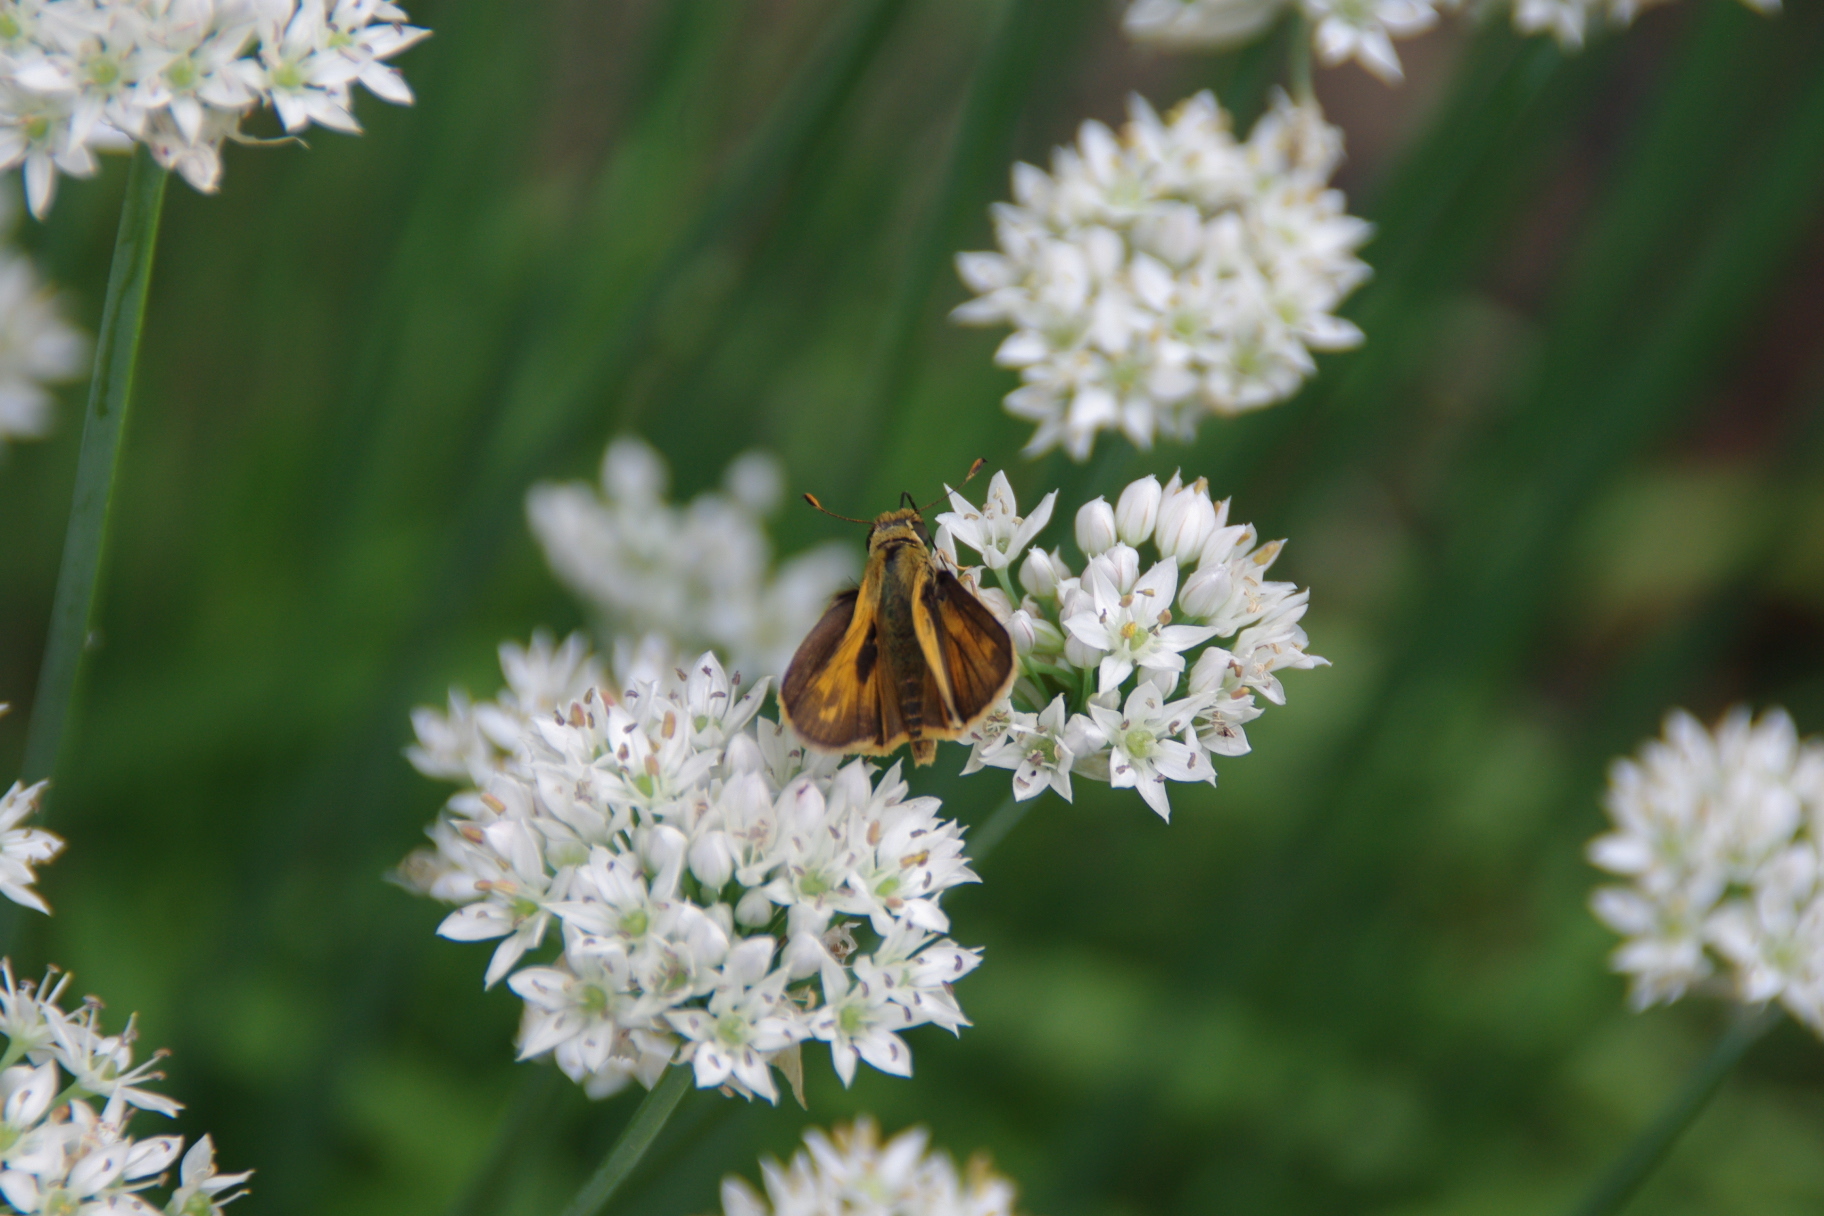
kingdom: Animalia
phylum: Arthropoda
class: Insecta
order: Lepidoptera
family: Hesperiidae
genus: Atalopedes
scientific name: Atalopedes
